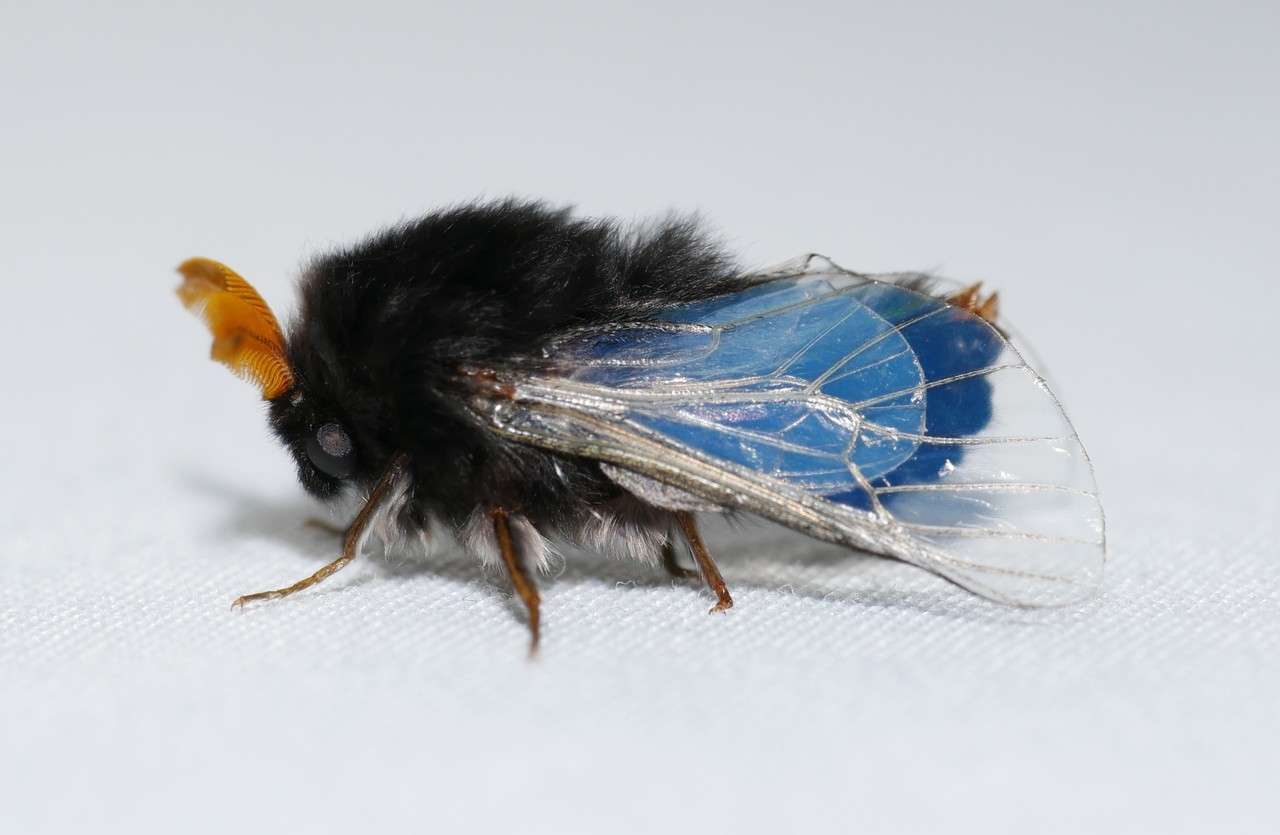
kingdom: Animalia
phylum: Arthropoda
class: Insecta
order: Lepidoptera
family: Psychidae
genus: Hyalarcta
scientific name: Hyalarcta huebneri
